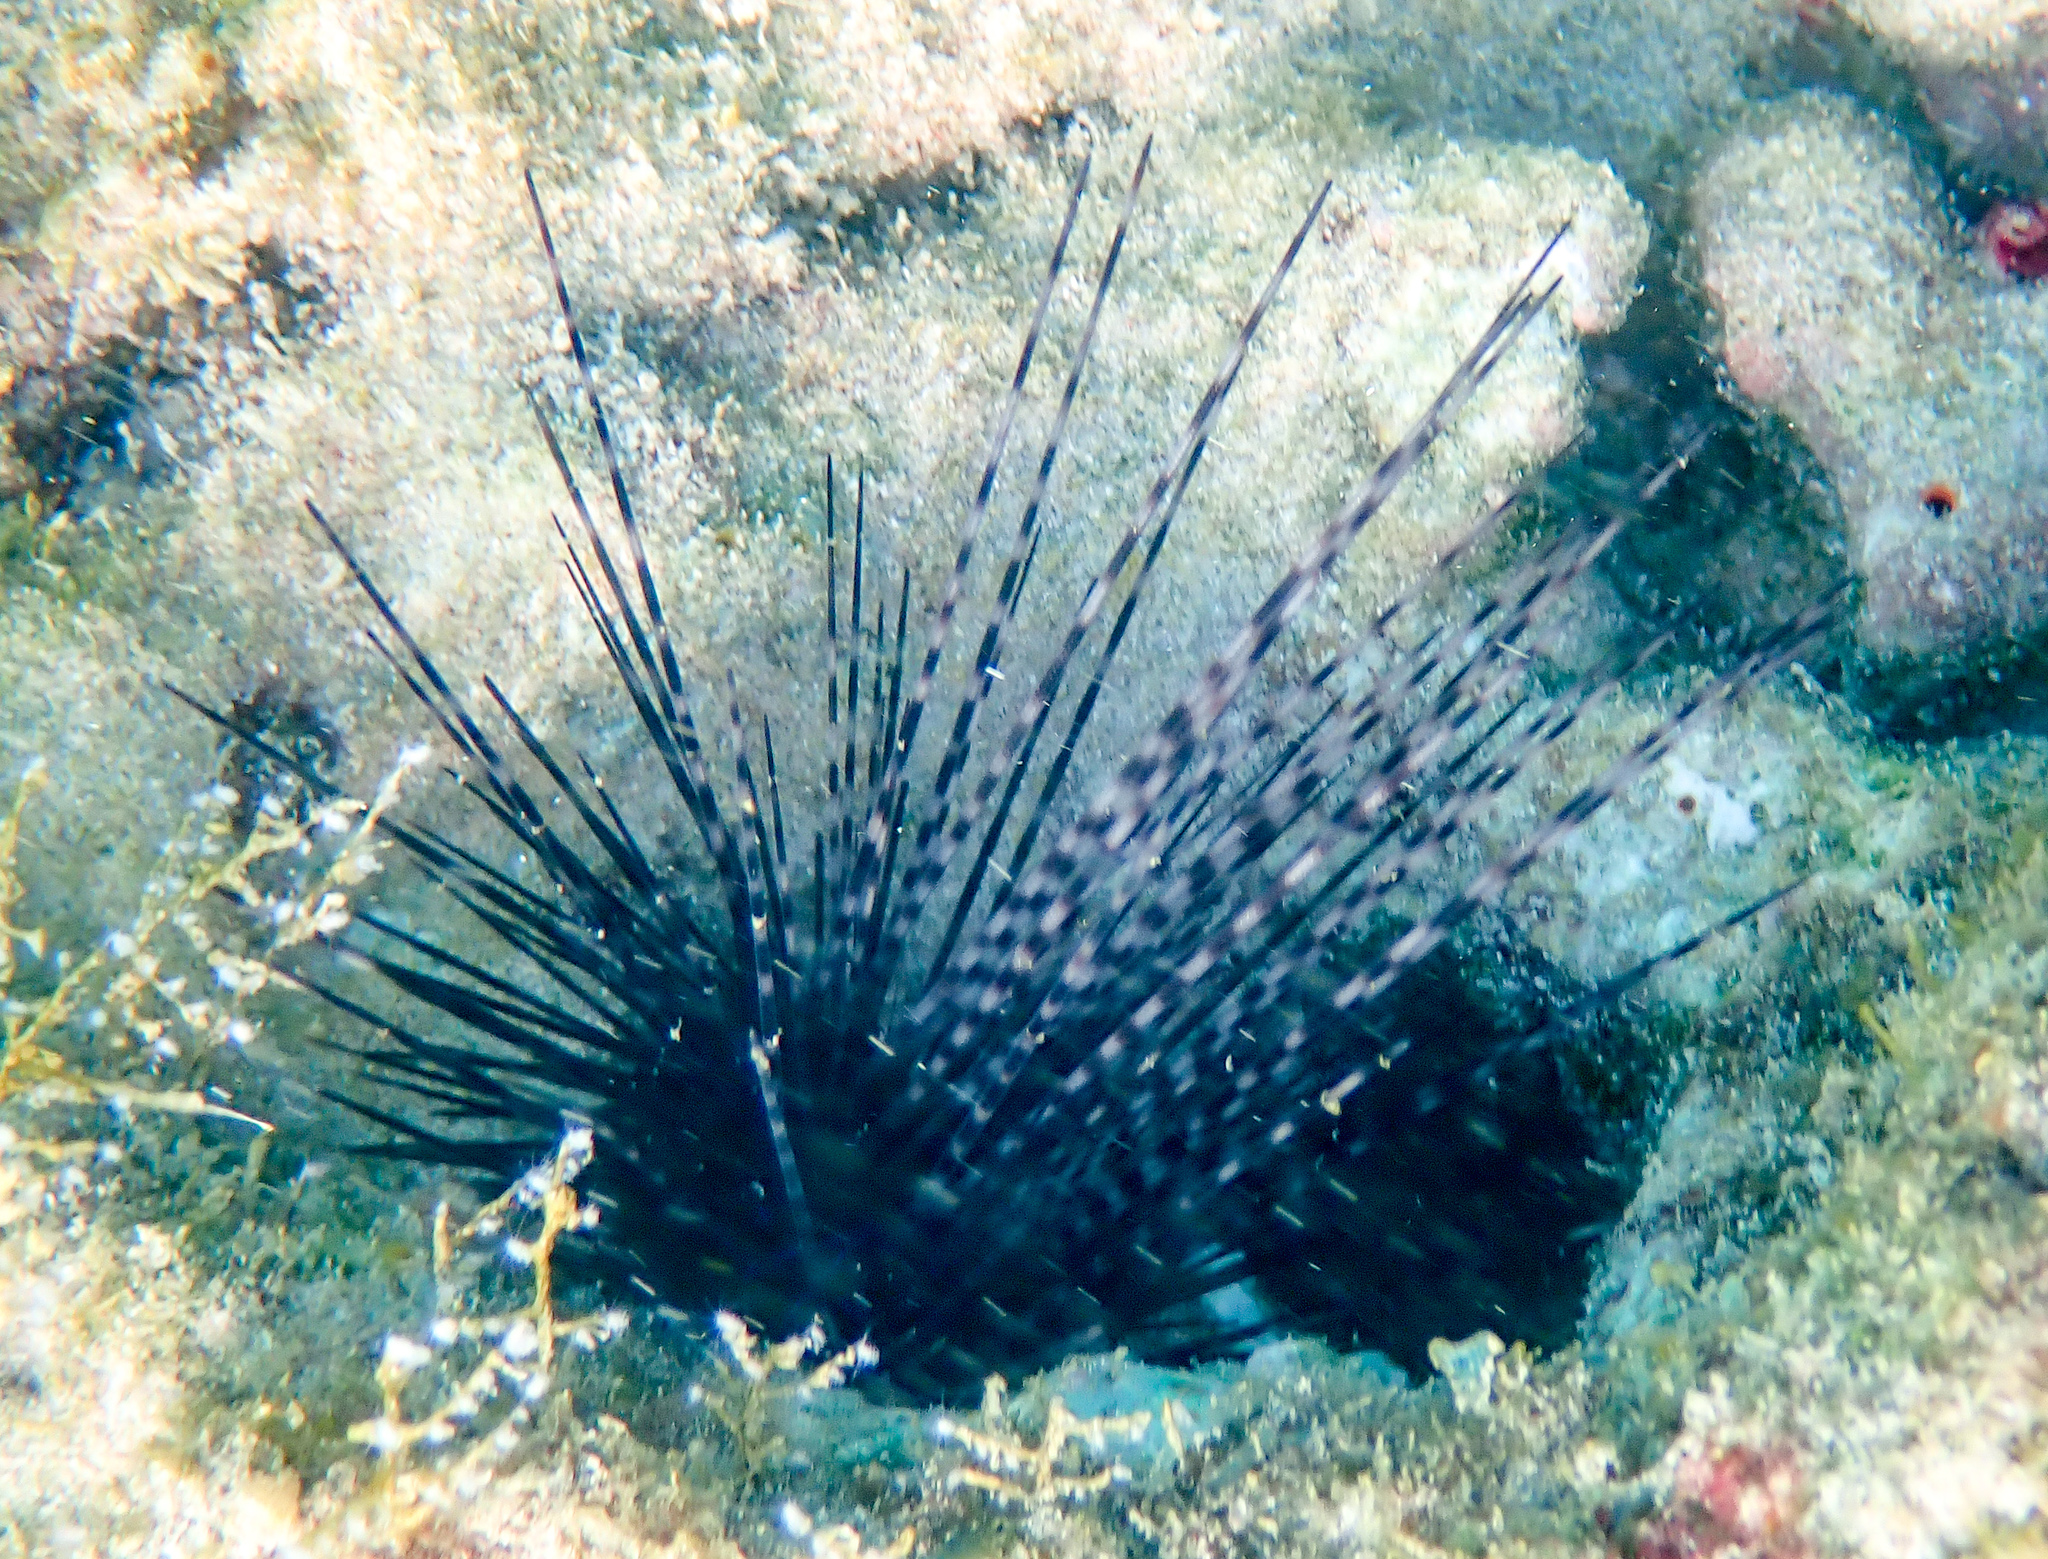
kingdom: Animalia
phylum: Echinodermata
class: Echinoidea
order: Diadematoida
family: Diadematidae
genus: Diadema
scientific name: Diadema antillarum
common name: Spiny urchin
